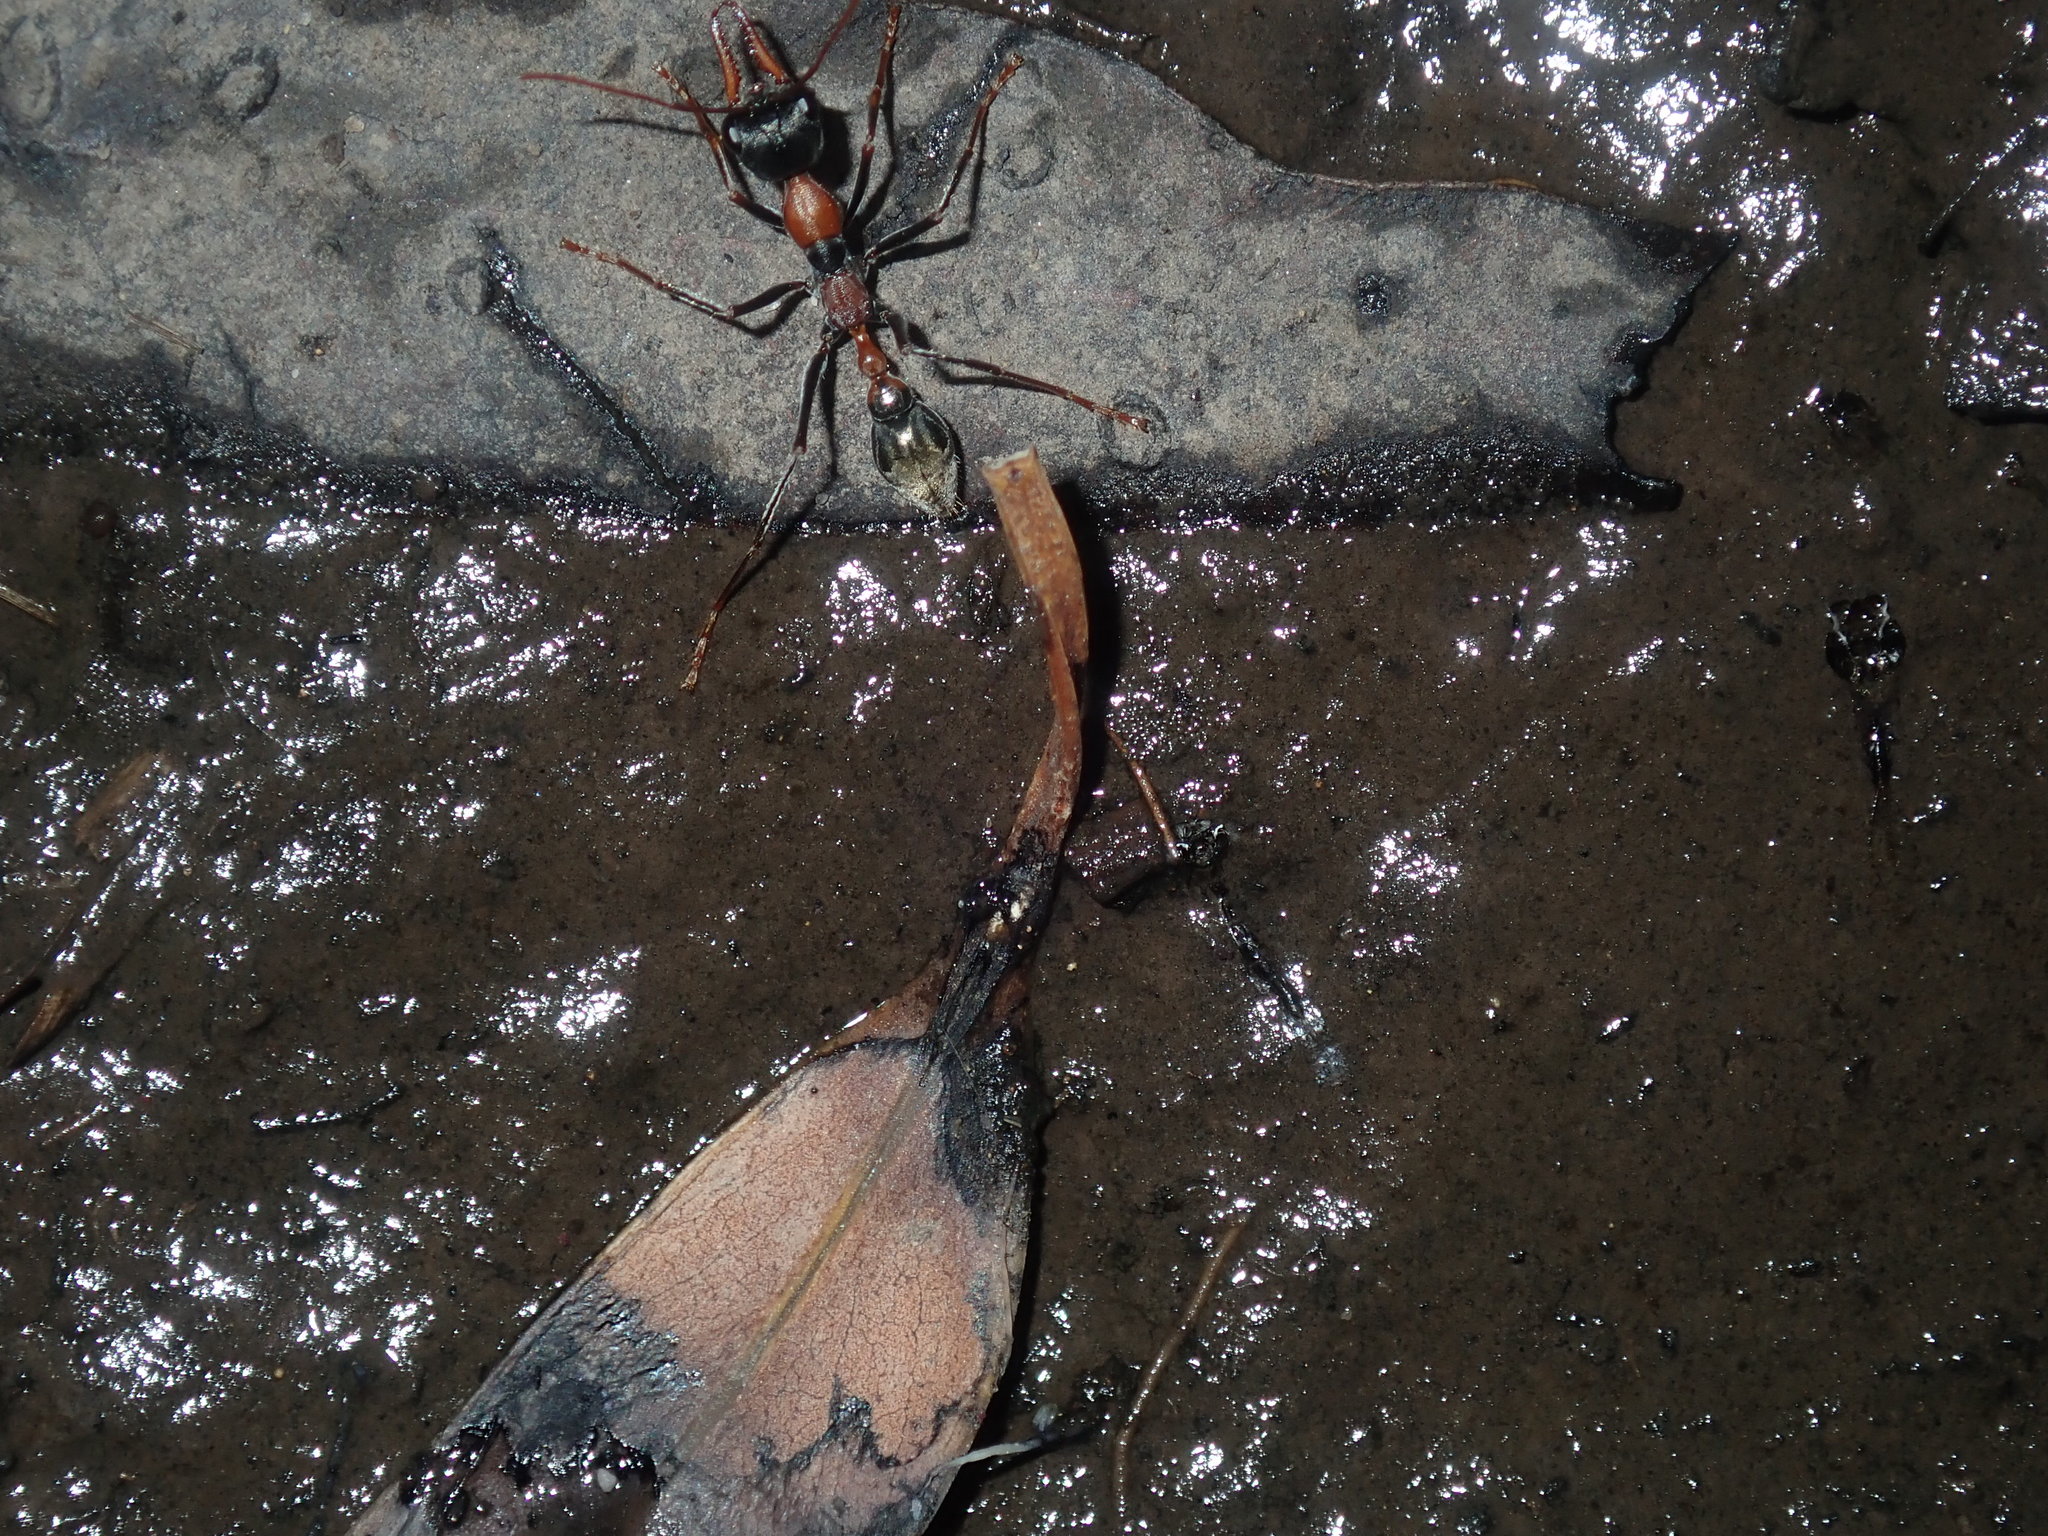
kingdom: Animalia
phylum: Arthropoda
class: Insecta
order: Hymenoptera
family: Formicidae
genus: Myrmecia
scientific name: Myrmecia nigrocincta
